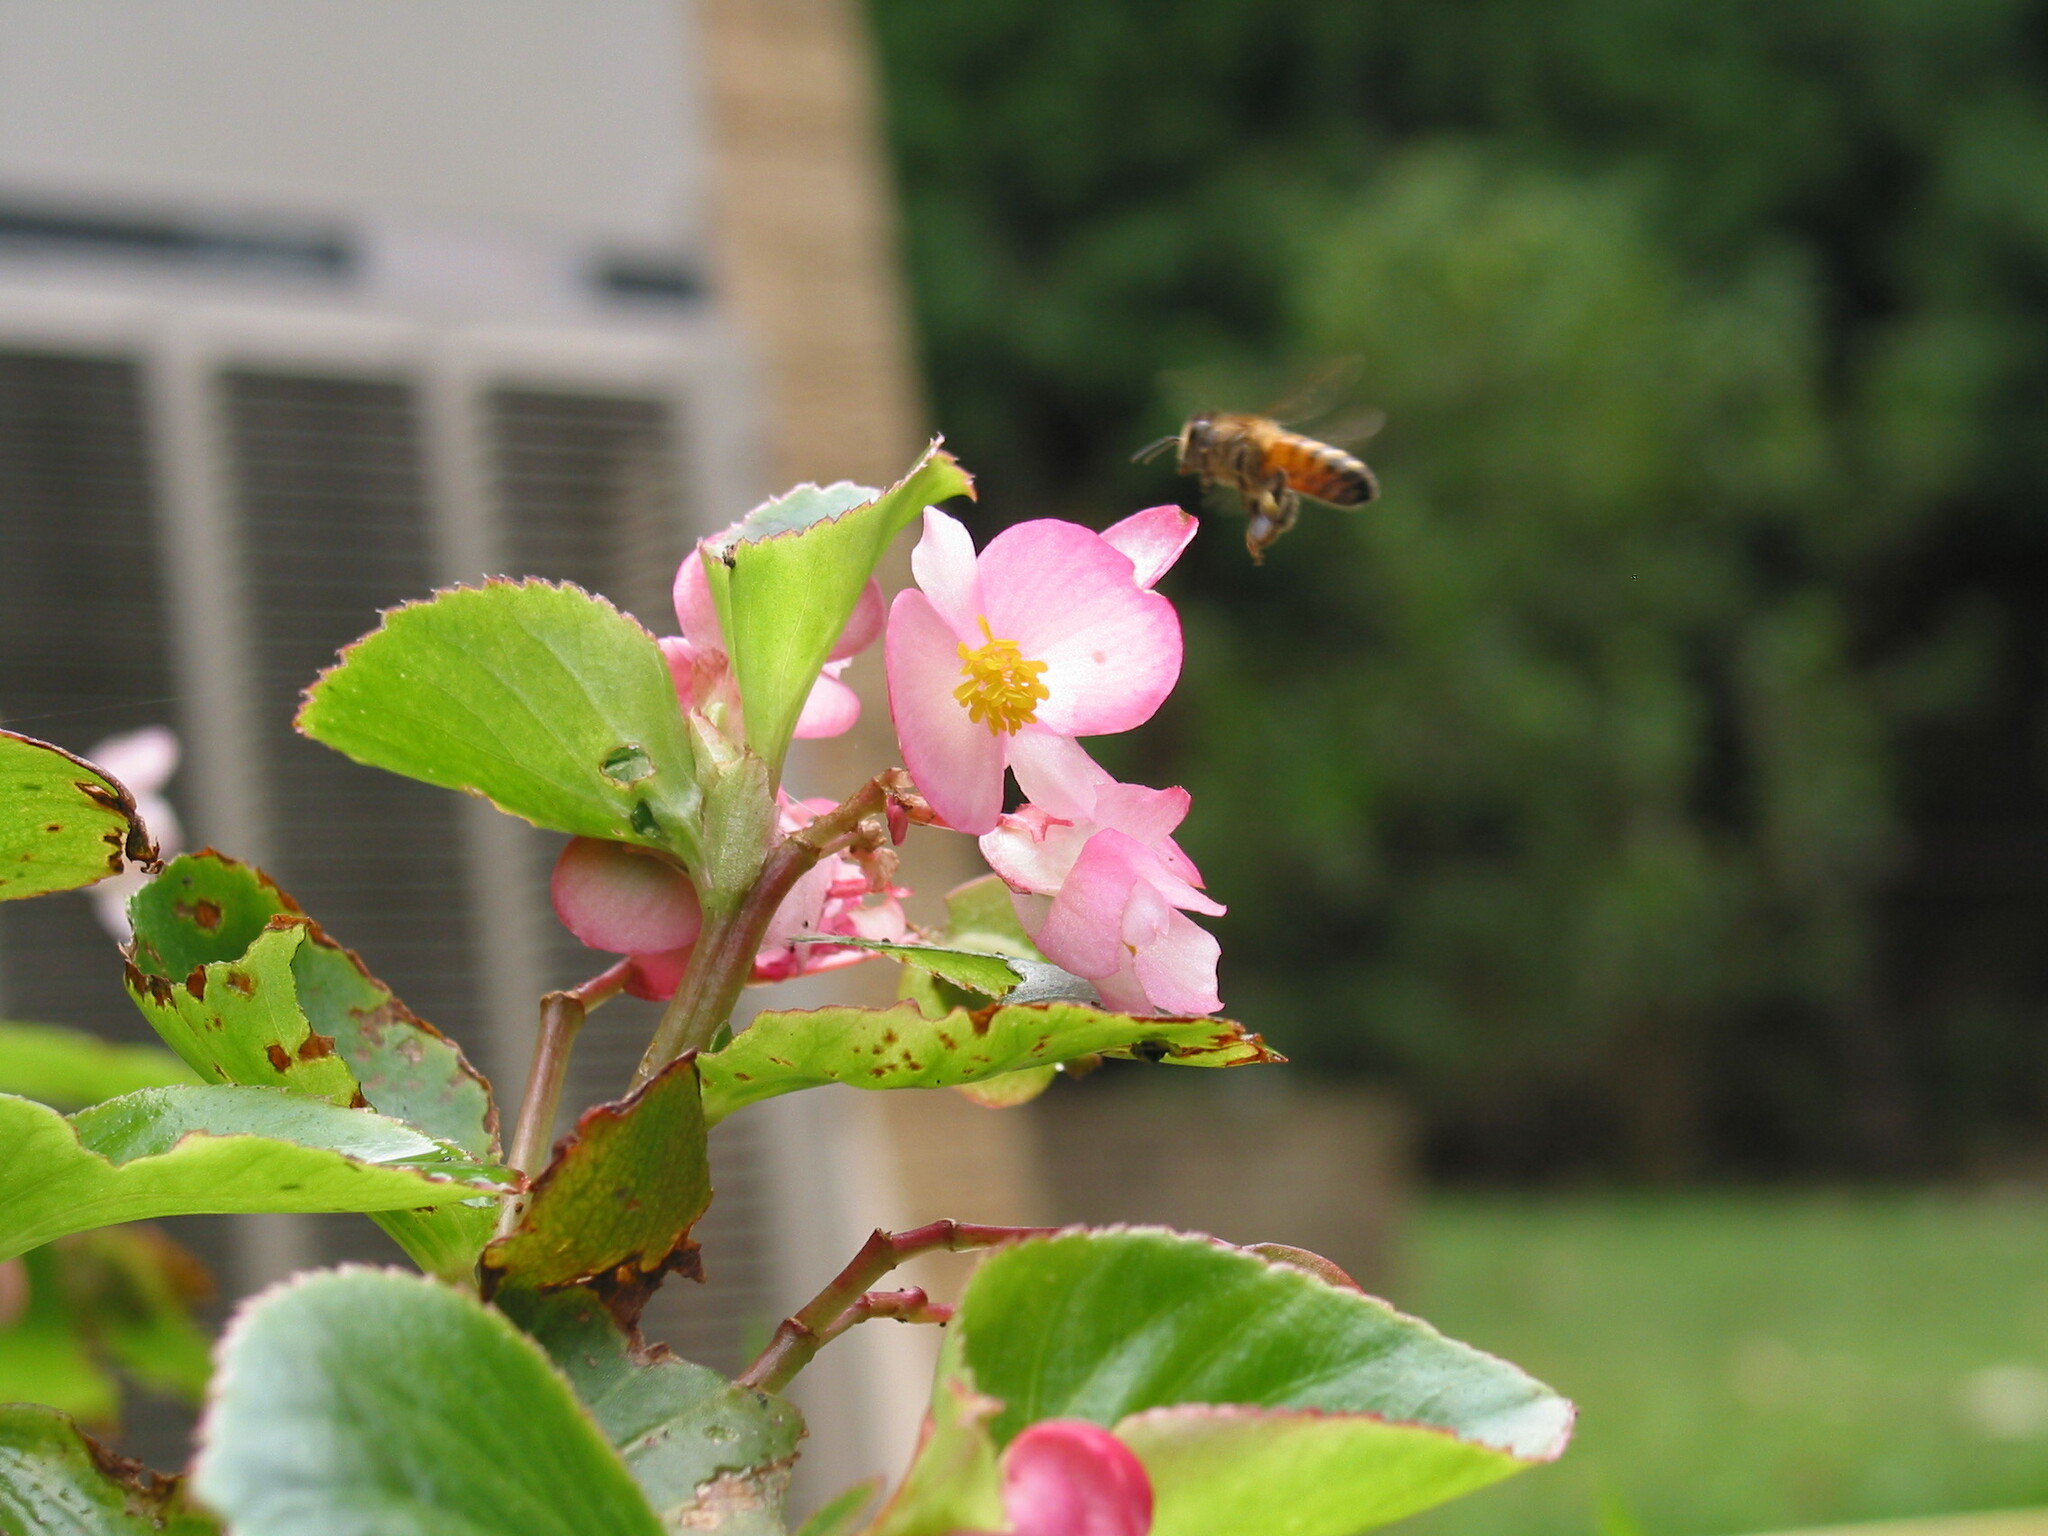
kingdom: Animalia
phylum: Arthropoda
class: Insecta
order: Hymenoptera
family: Apidae
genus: Apis
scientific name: Apis mellifera
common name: Honey bee
